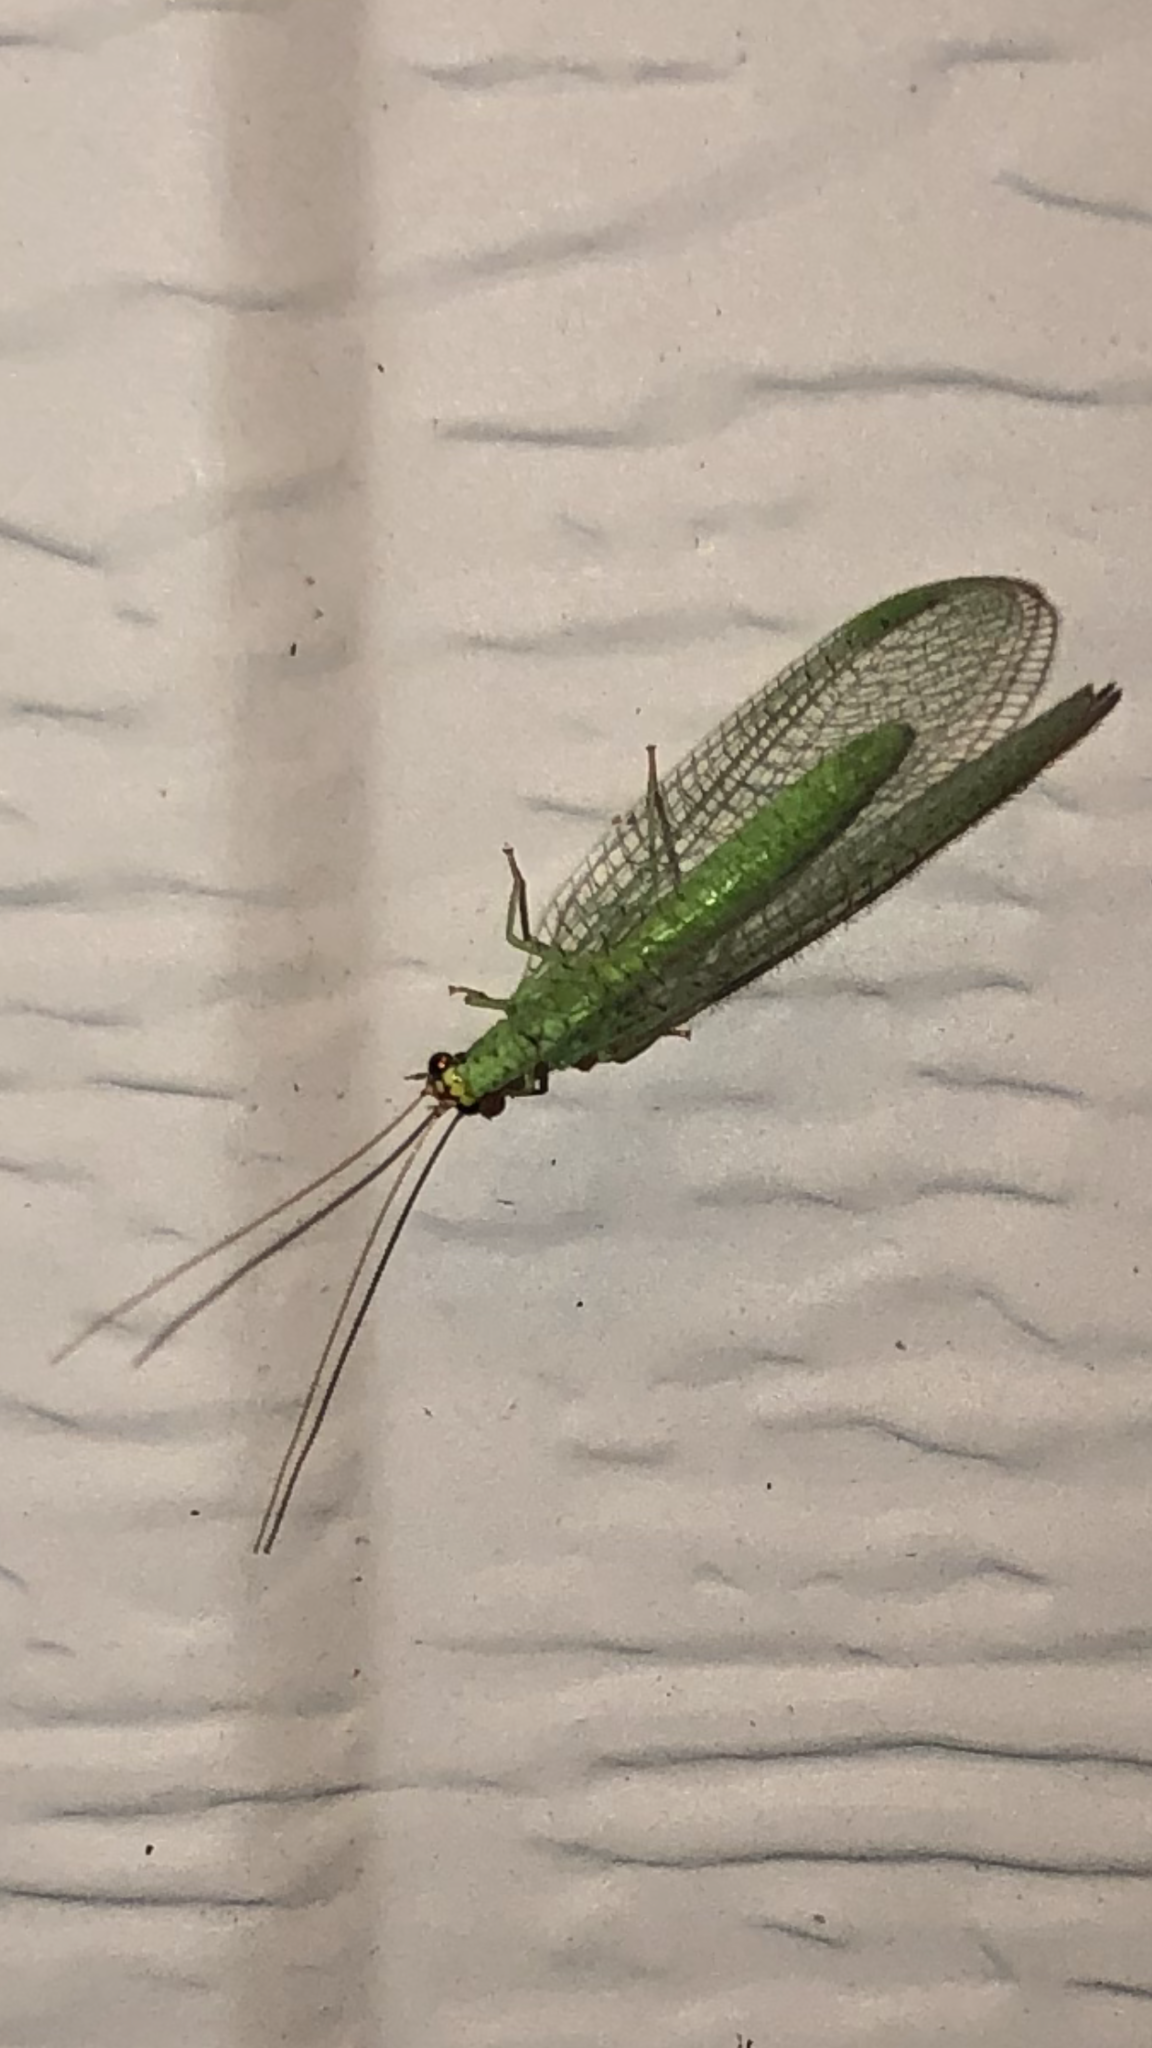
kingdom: Animalia
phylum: Arthropoda
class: Insecta
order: Neuroptera
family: Chrysopidae
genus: Chrysopa
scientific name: Chrysopa oculata
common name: Golden-eyed lacewing
